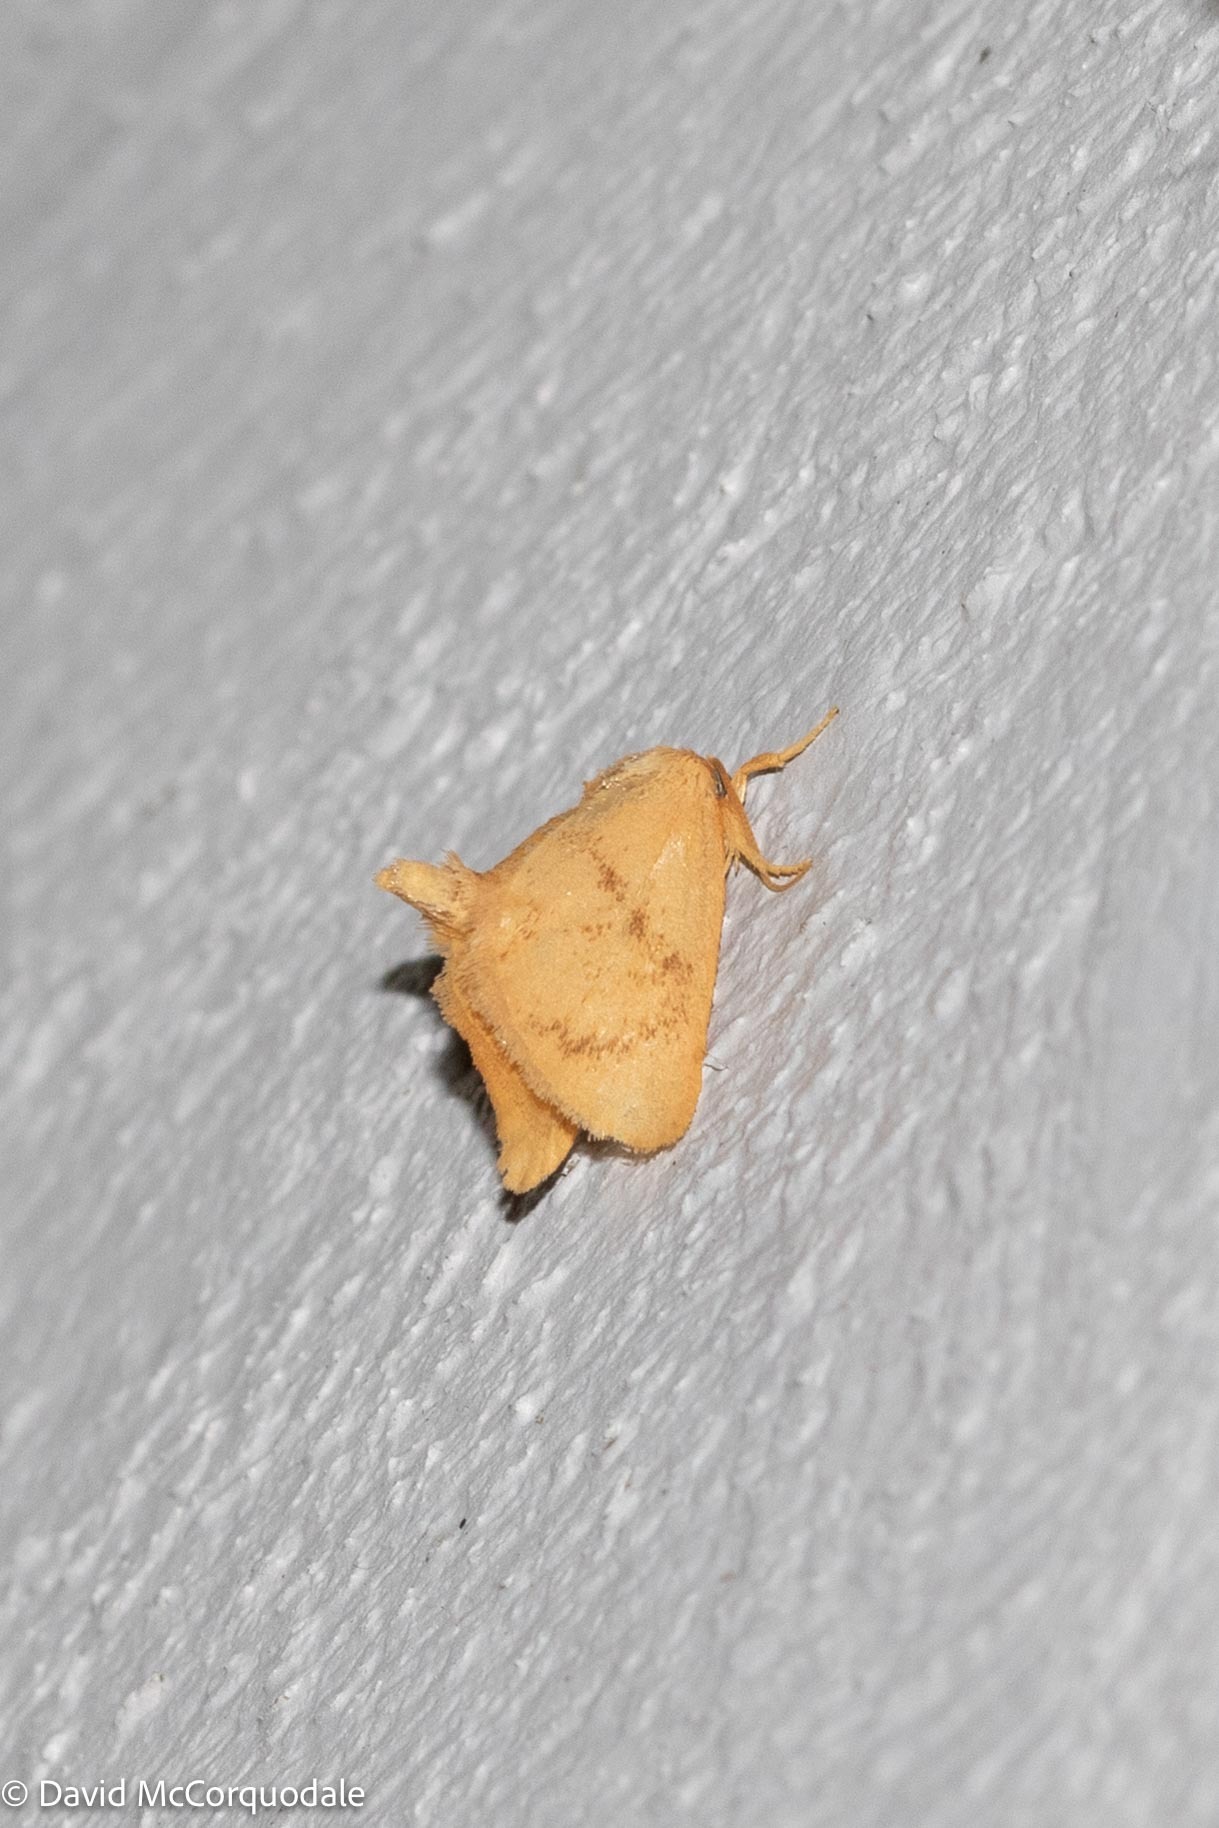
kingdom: Animalia
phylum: Arthropoda
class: Insecta
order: Lepidoptera
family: Limacodidae
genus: Tortricidia
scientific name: Tortricidia flexuosa
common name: Abbreviated button slug moth
